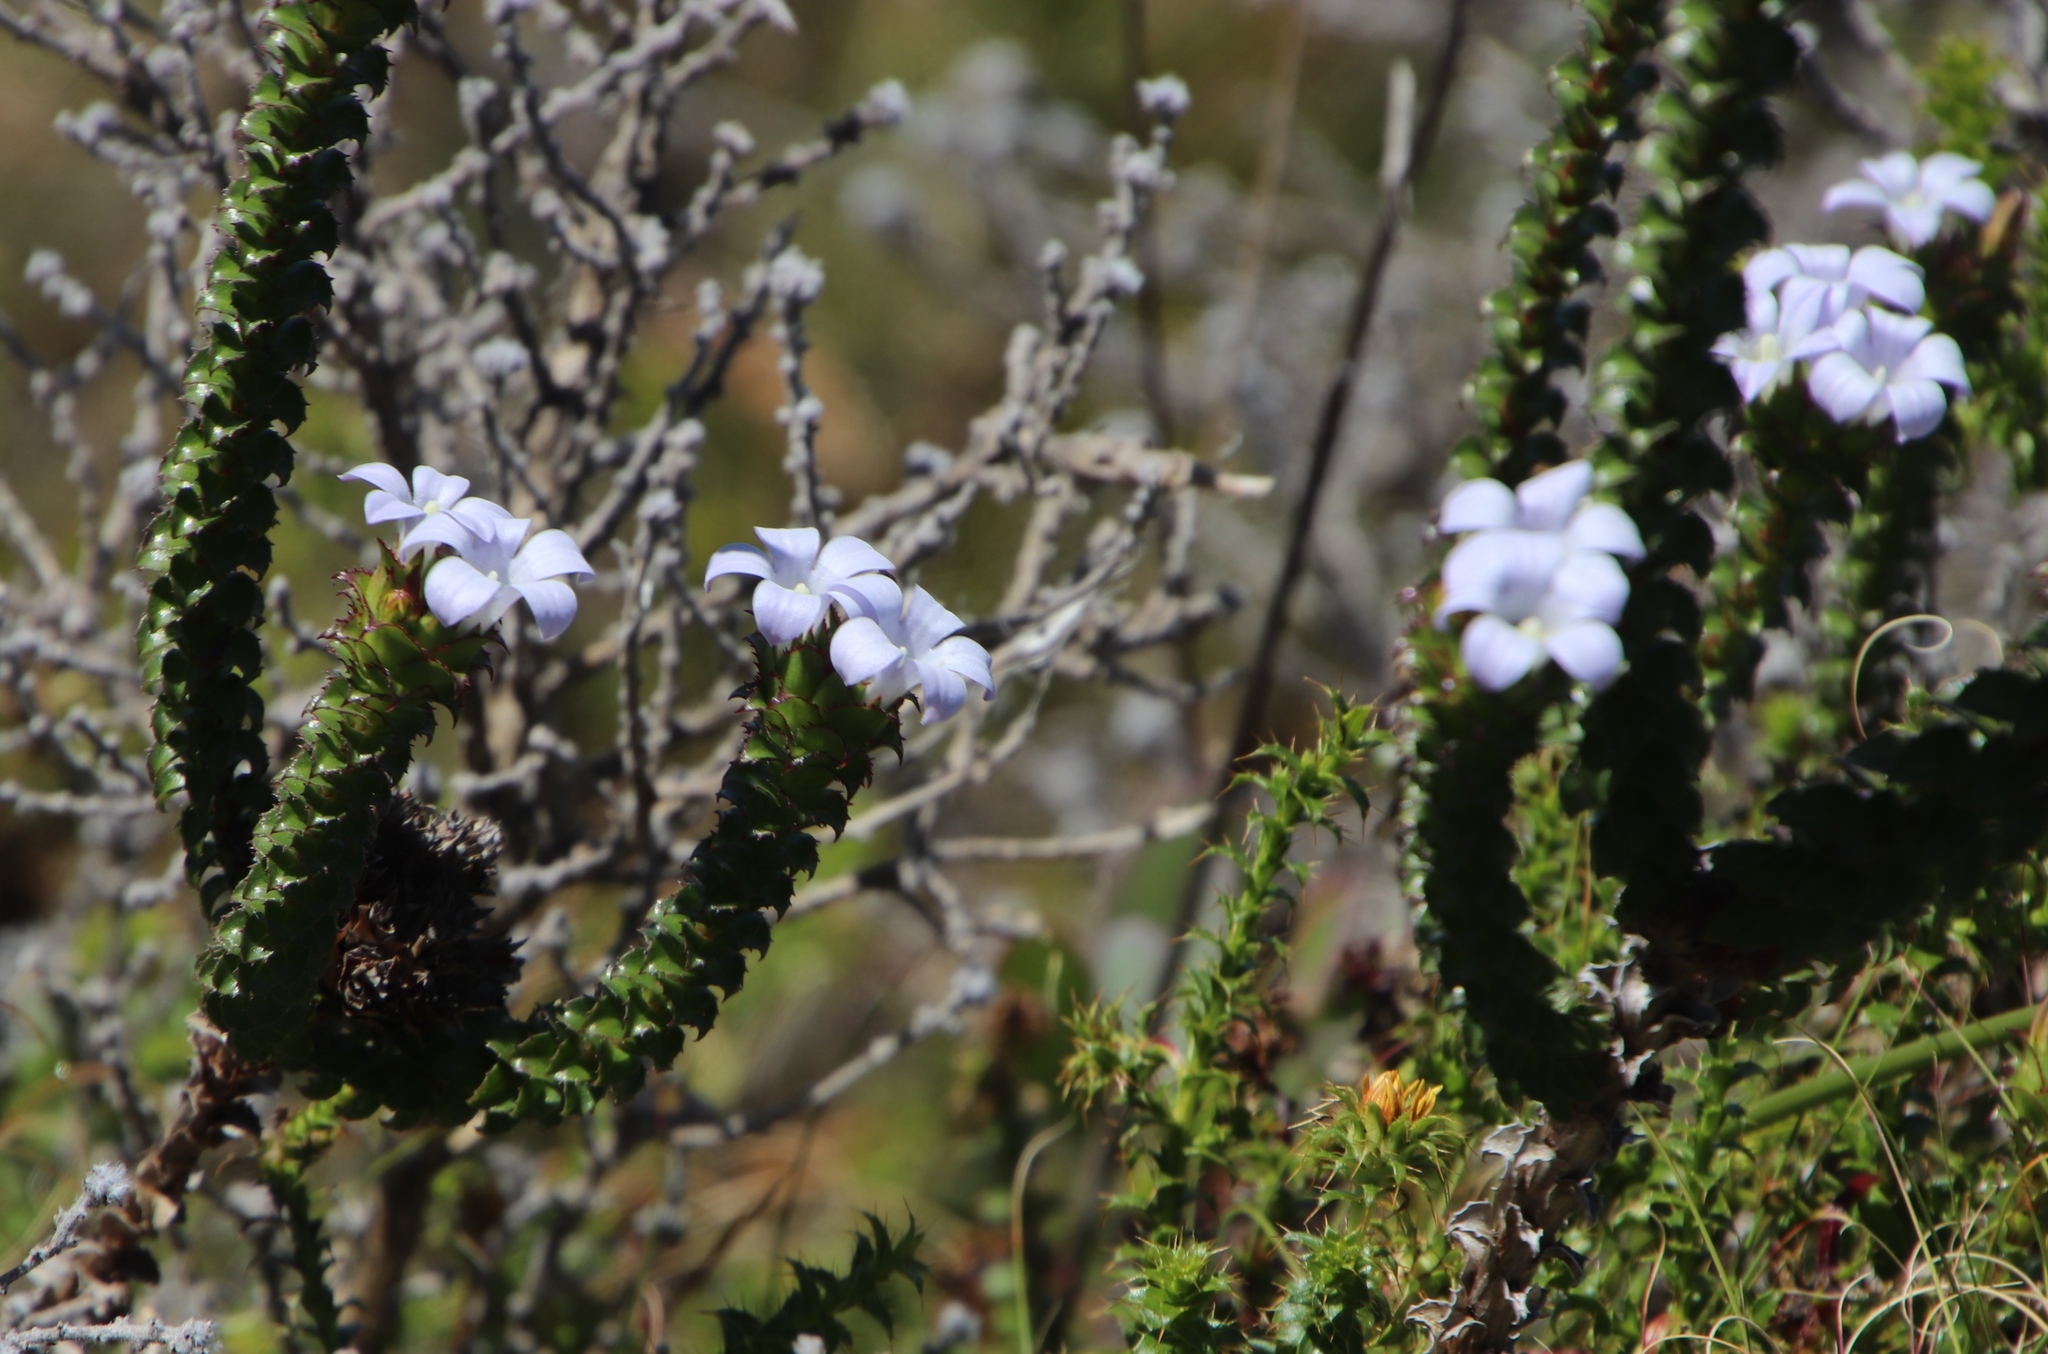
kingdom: Plantae
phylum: Tracheophyta
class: Magnoliopsida
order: Asterales
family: Campanulaceae
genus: Roella
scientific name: Roella amplexicaulis
